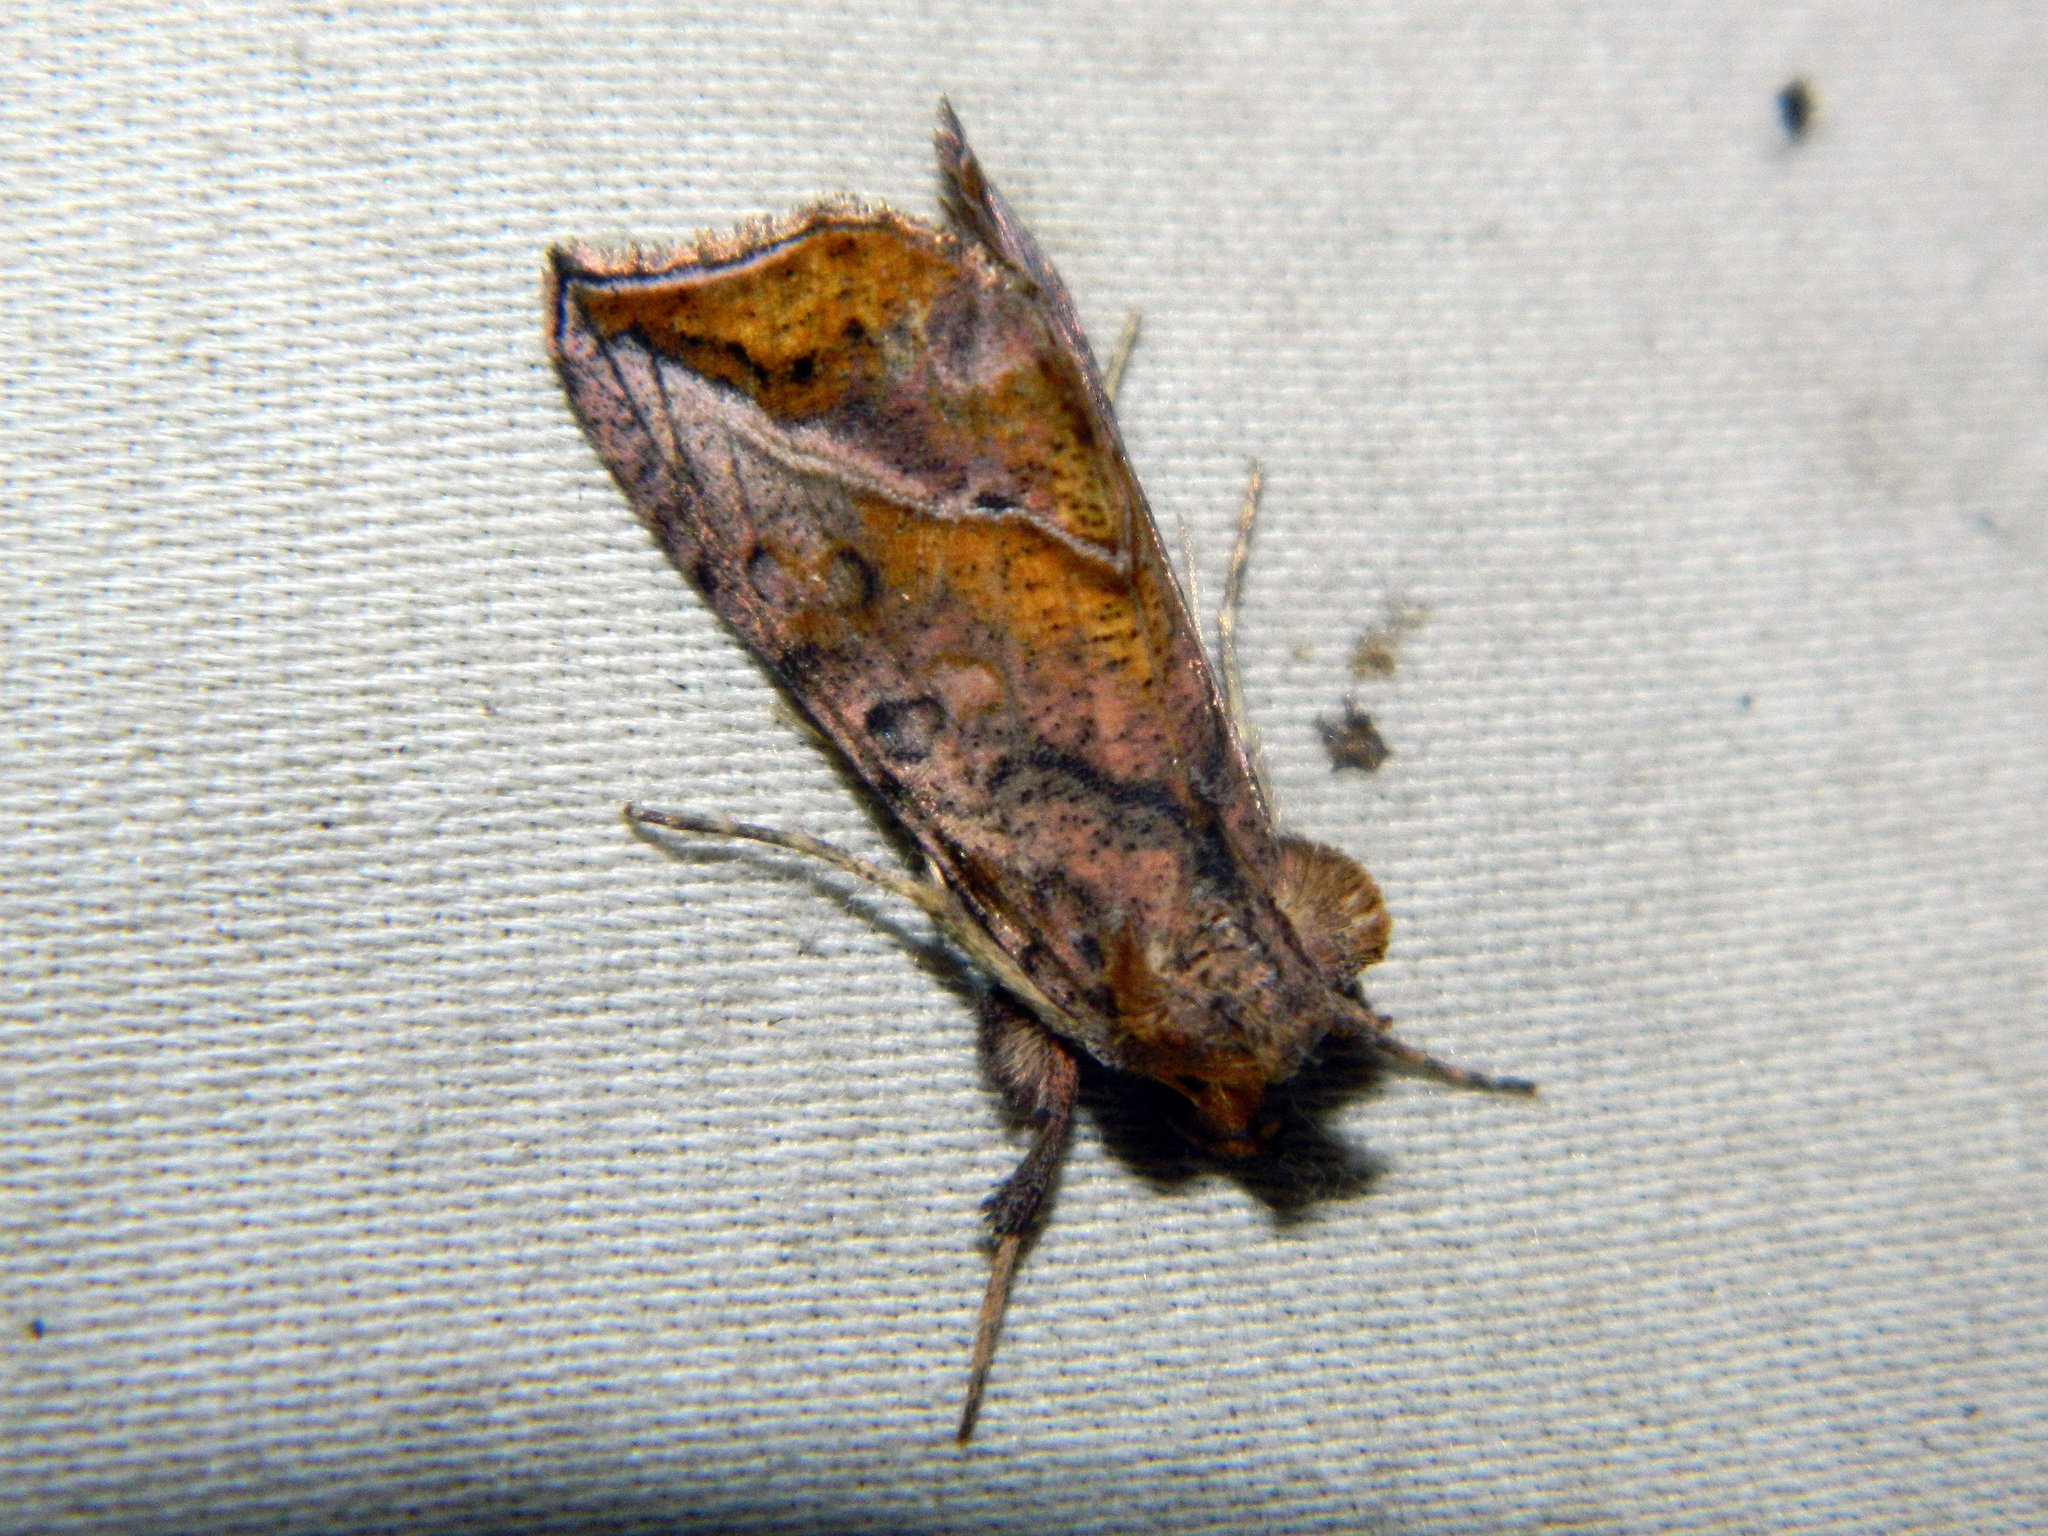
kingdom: Animalia
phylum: Arthropoda
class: Insecta
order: Lepidoptera
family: Noctuidae
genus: Pseudeva
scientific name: Pseudeva purpurigera
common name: Straight-lined looper moth
